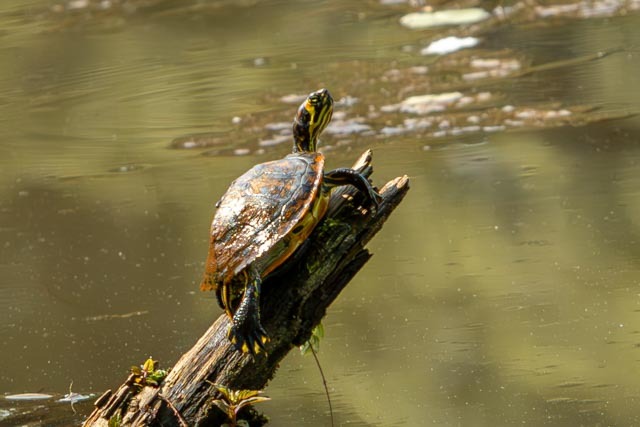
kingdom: Animalia
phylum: Chordata
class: Testudines
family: Emydidae
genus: Trachemys
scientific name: Trachemys scripta
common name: Slider
